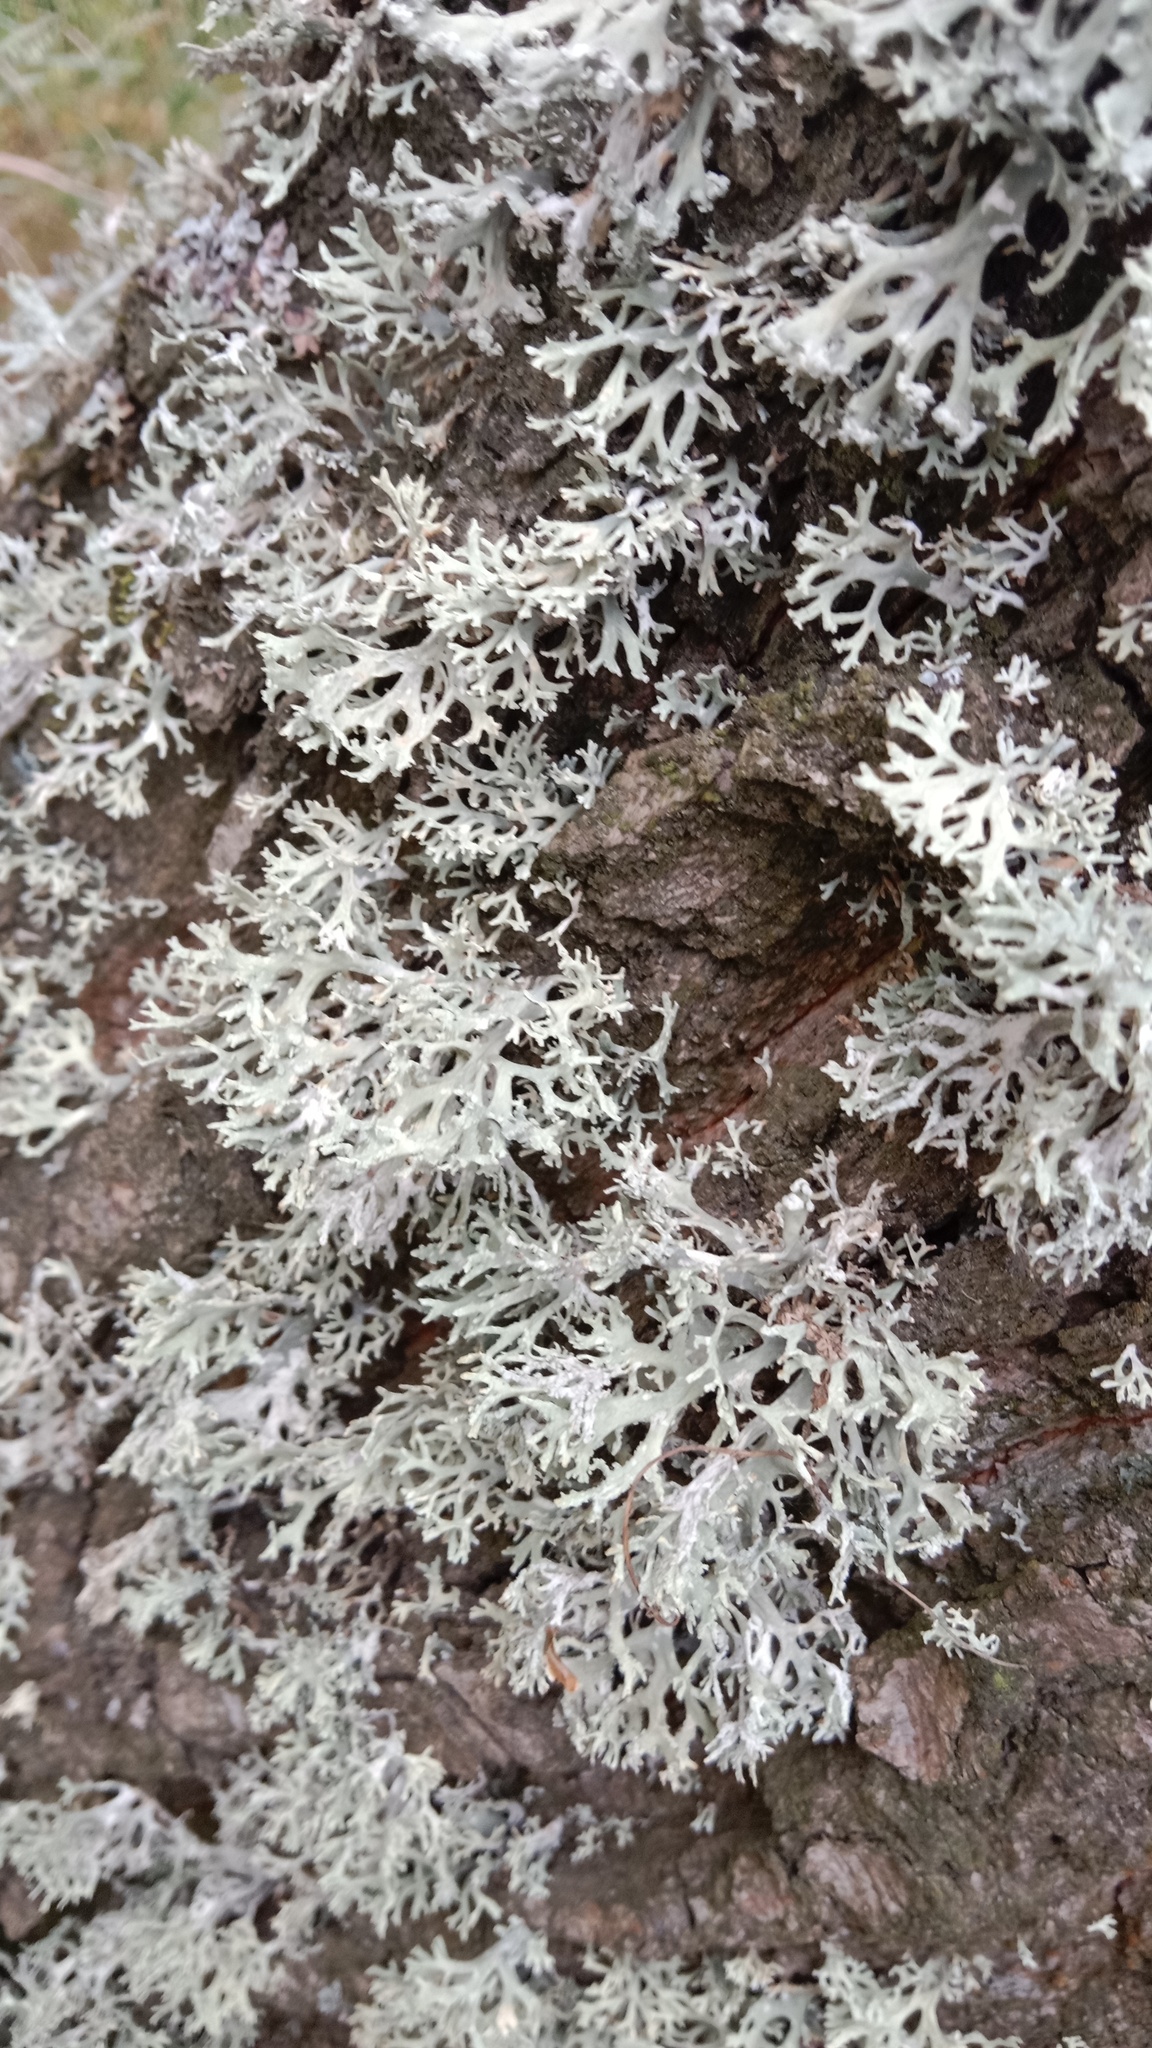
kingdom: Fungi
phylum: Ascomycota
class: Lecanoromycetes
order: Lecanorales
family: Parmeliaceae
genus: Evernia
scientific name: Evernia prunastri
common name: Oak moss
